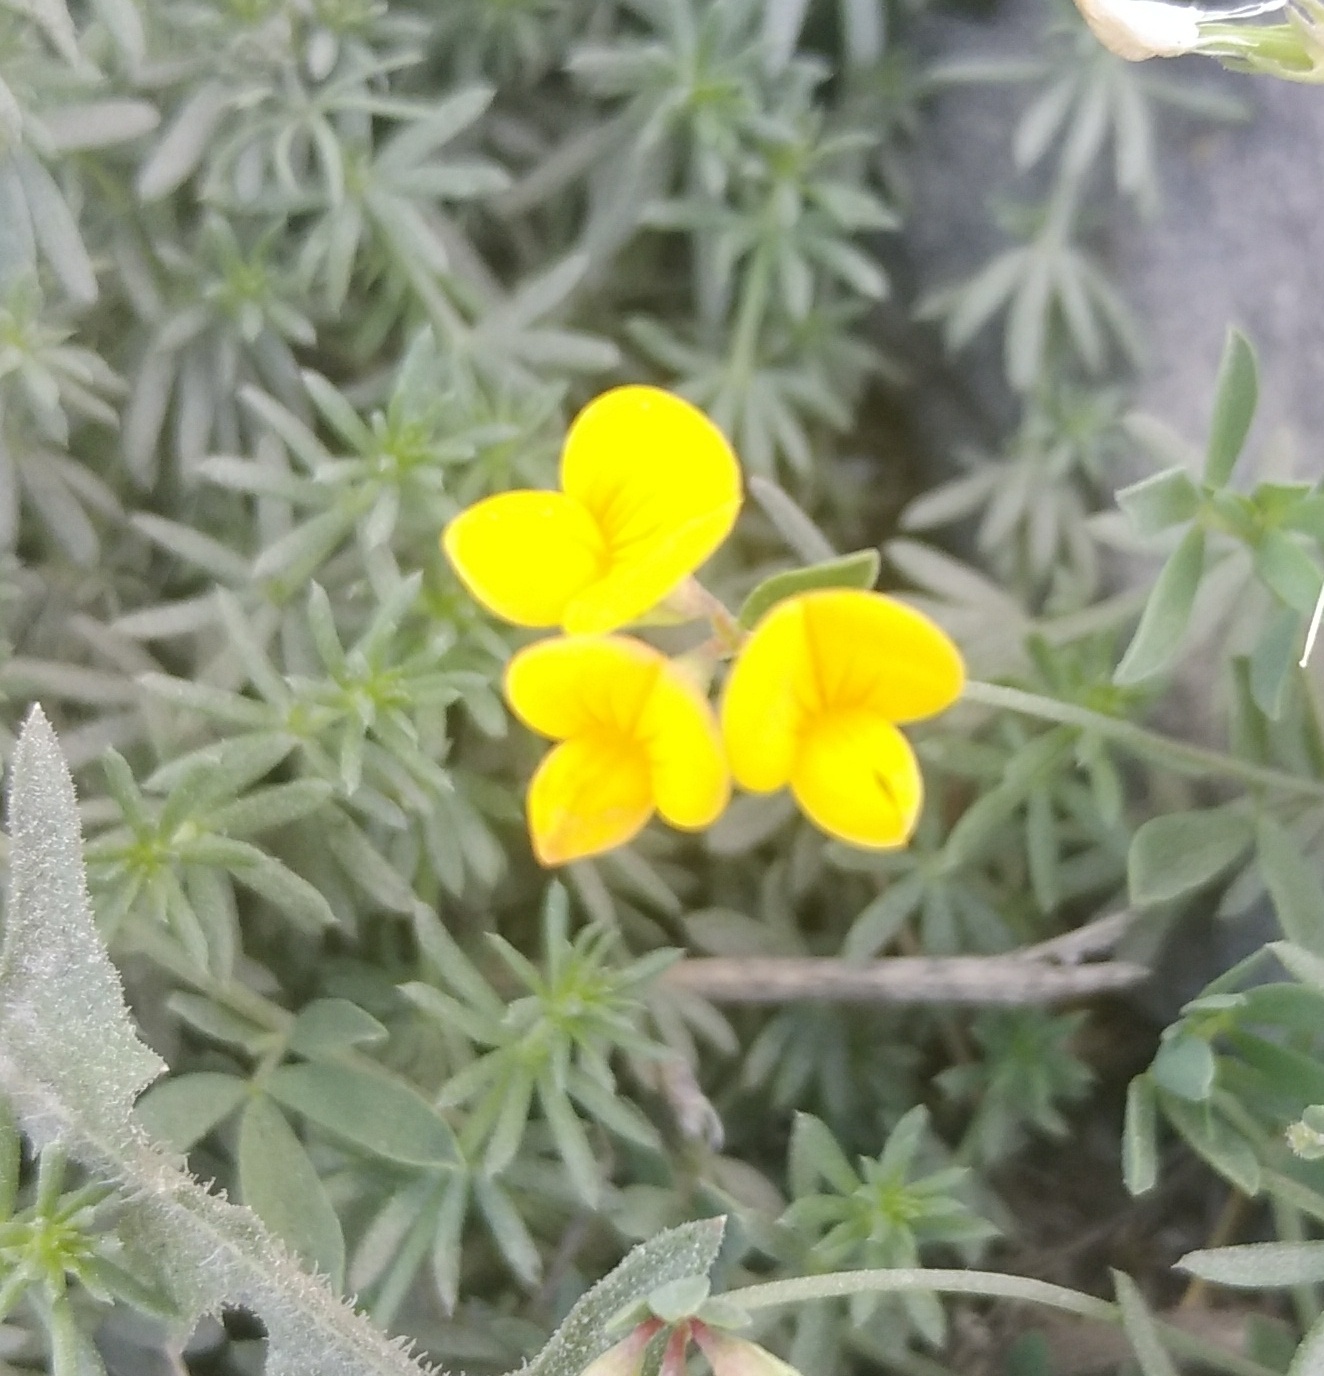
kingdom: Plantae
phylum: Tracheophyta
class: Magnoliopsida
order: Fabales
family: Fabaceae
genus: Lotus
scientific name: Lotus corniculatus
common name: Common bird's-foot-trefoil
